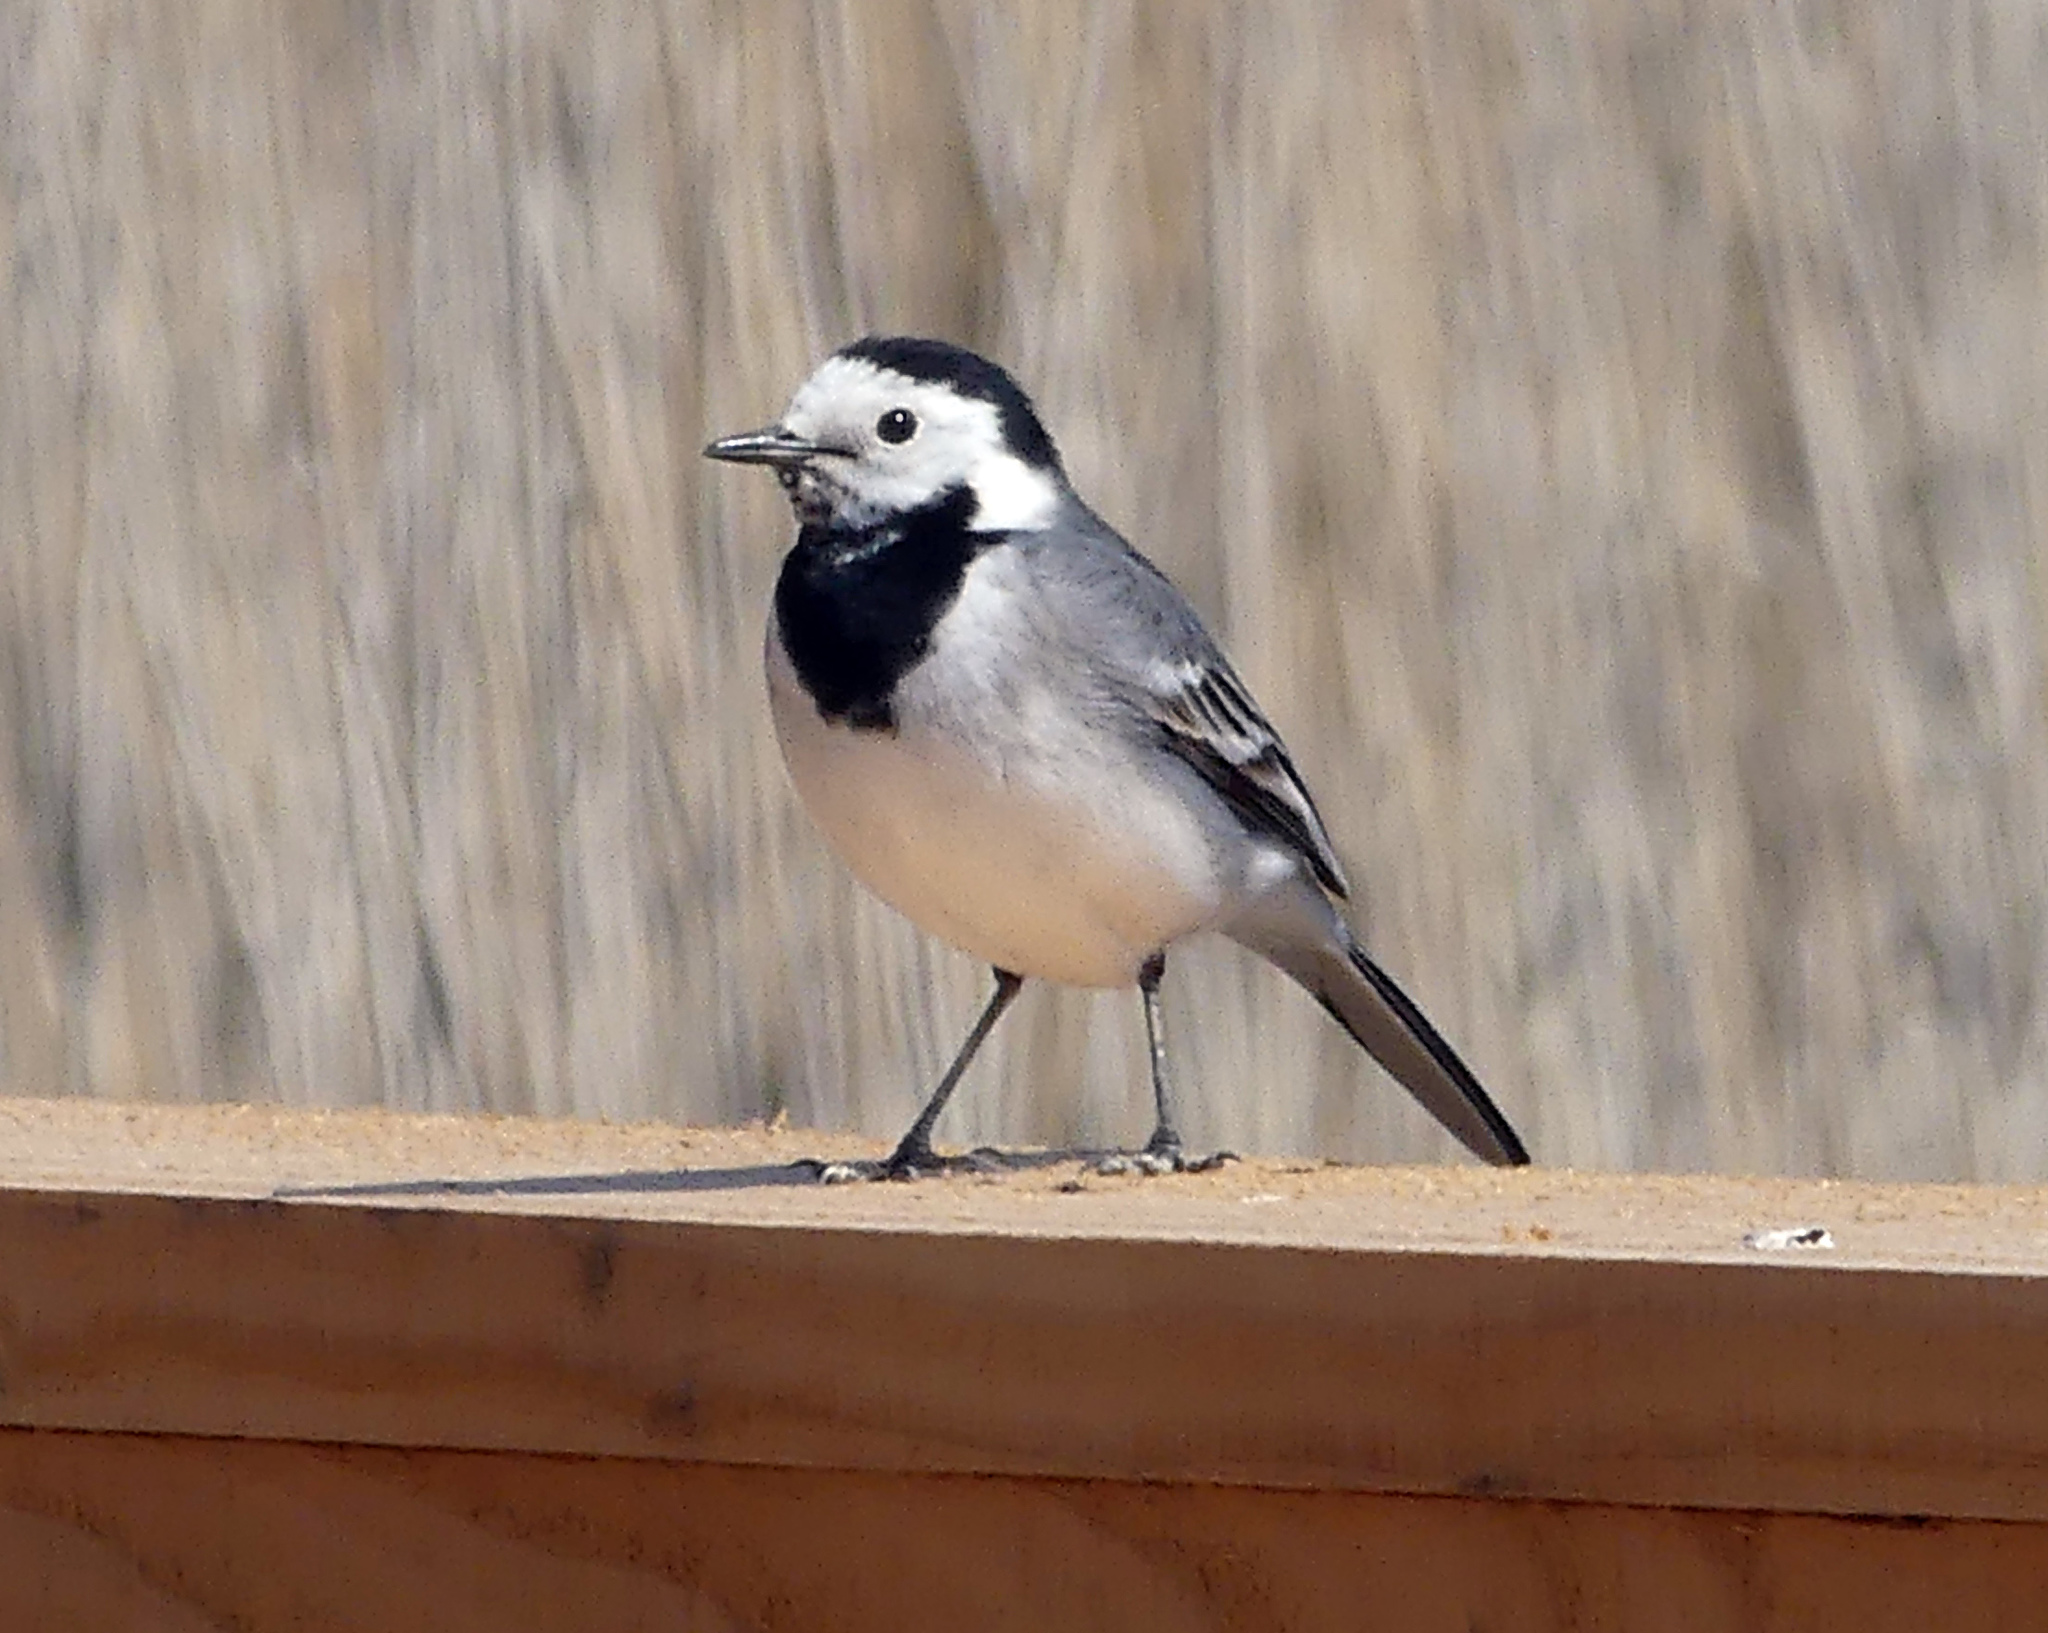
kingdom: Animalia
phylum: Chordata
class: Aves
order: Passeriformes
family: Motacillidae
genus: Motacilla
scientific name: Motacilla alba
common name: White wagtail
